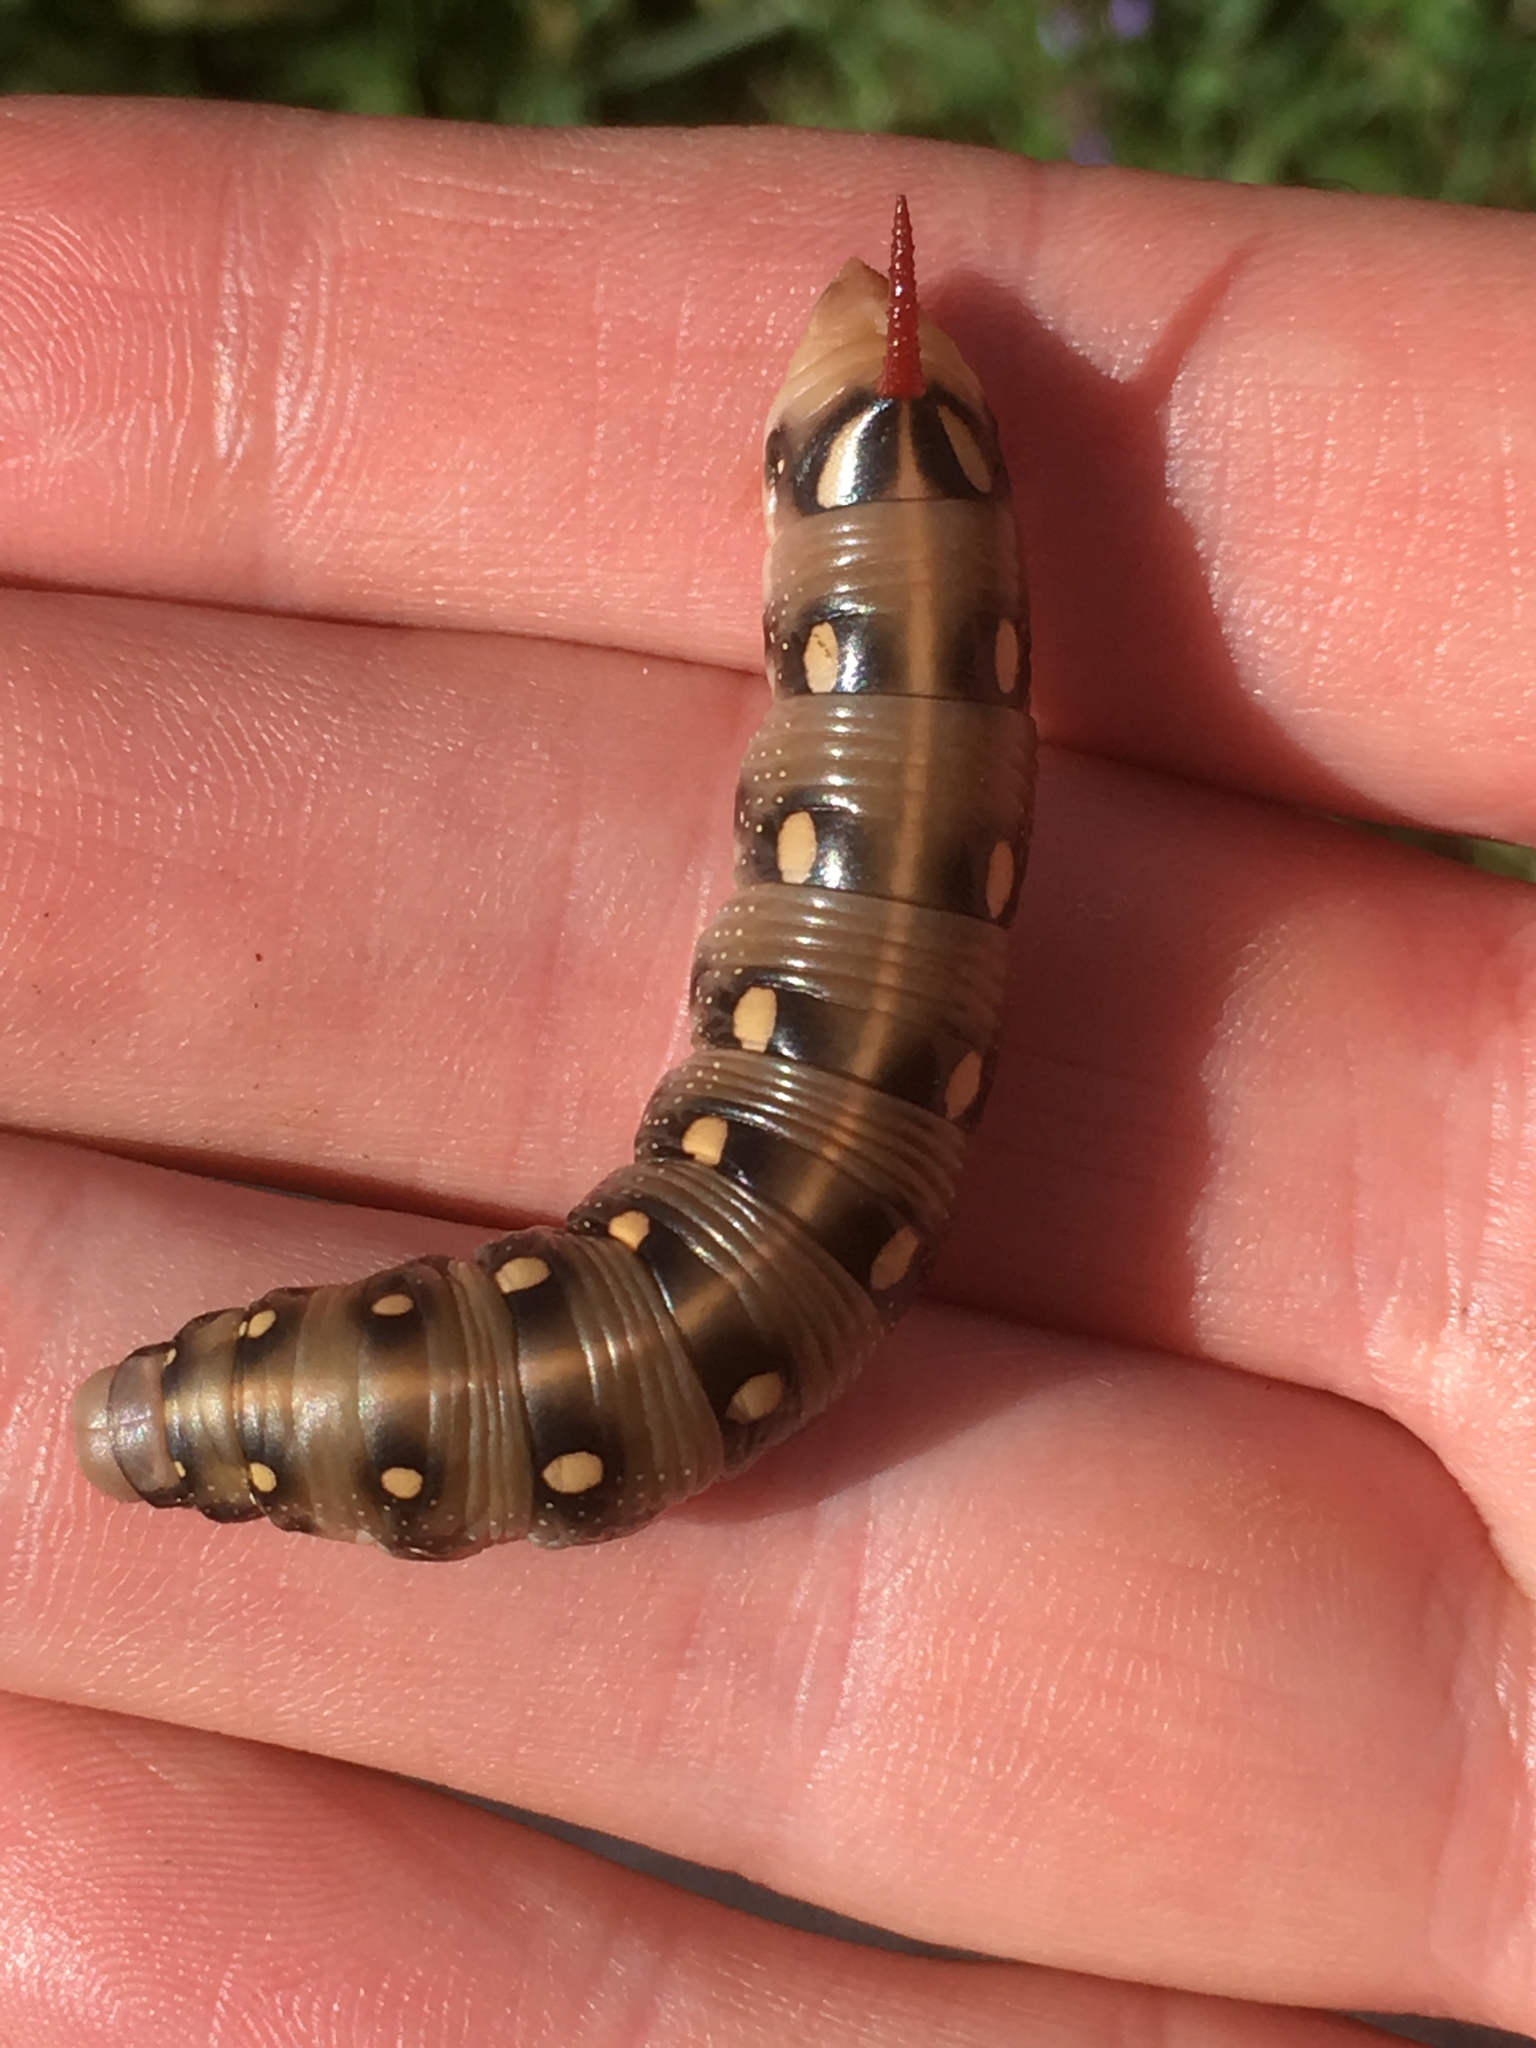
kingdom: Animalia
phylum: Arthropoda
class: Insecta
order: Lepidoptera
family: Sphingidae
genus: Hyles
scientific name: Hyles gallii
